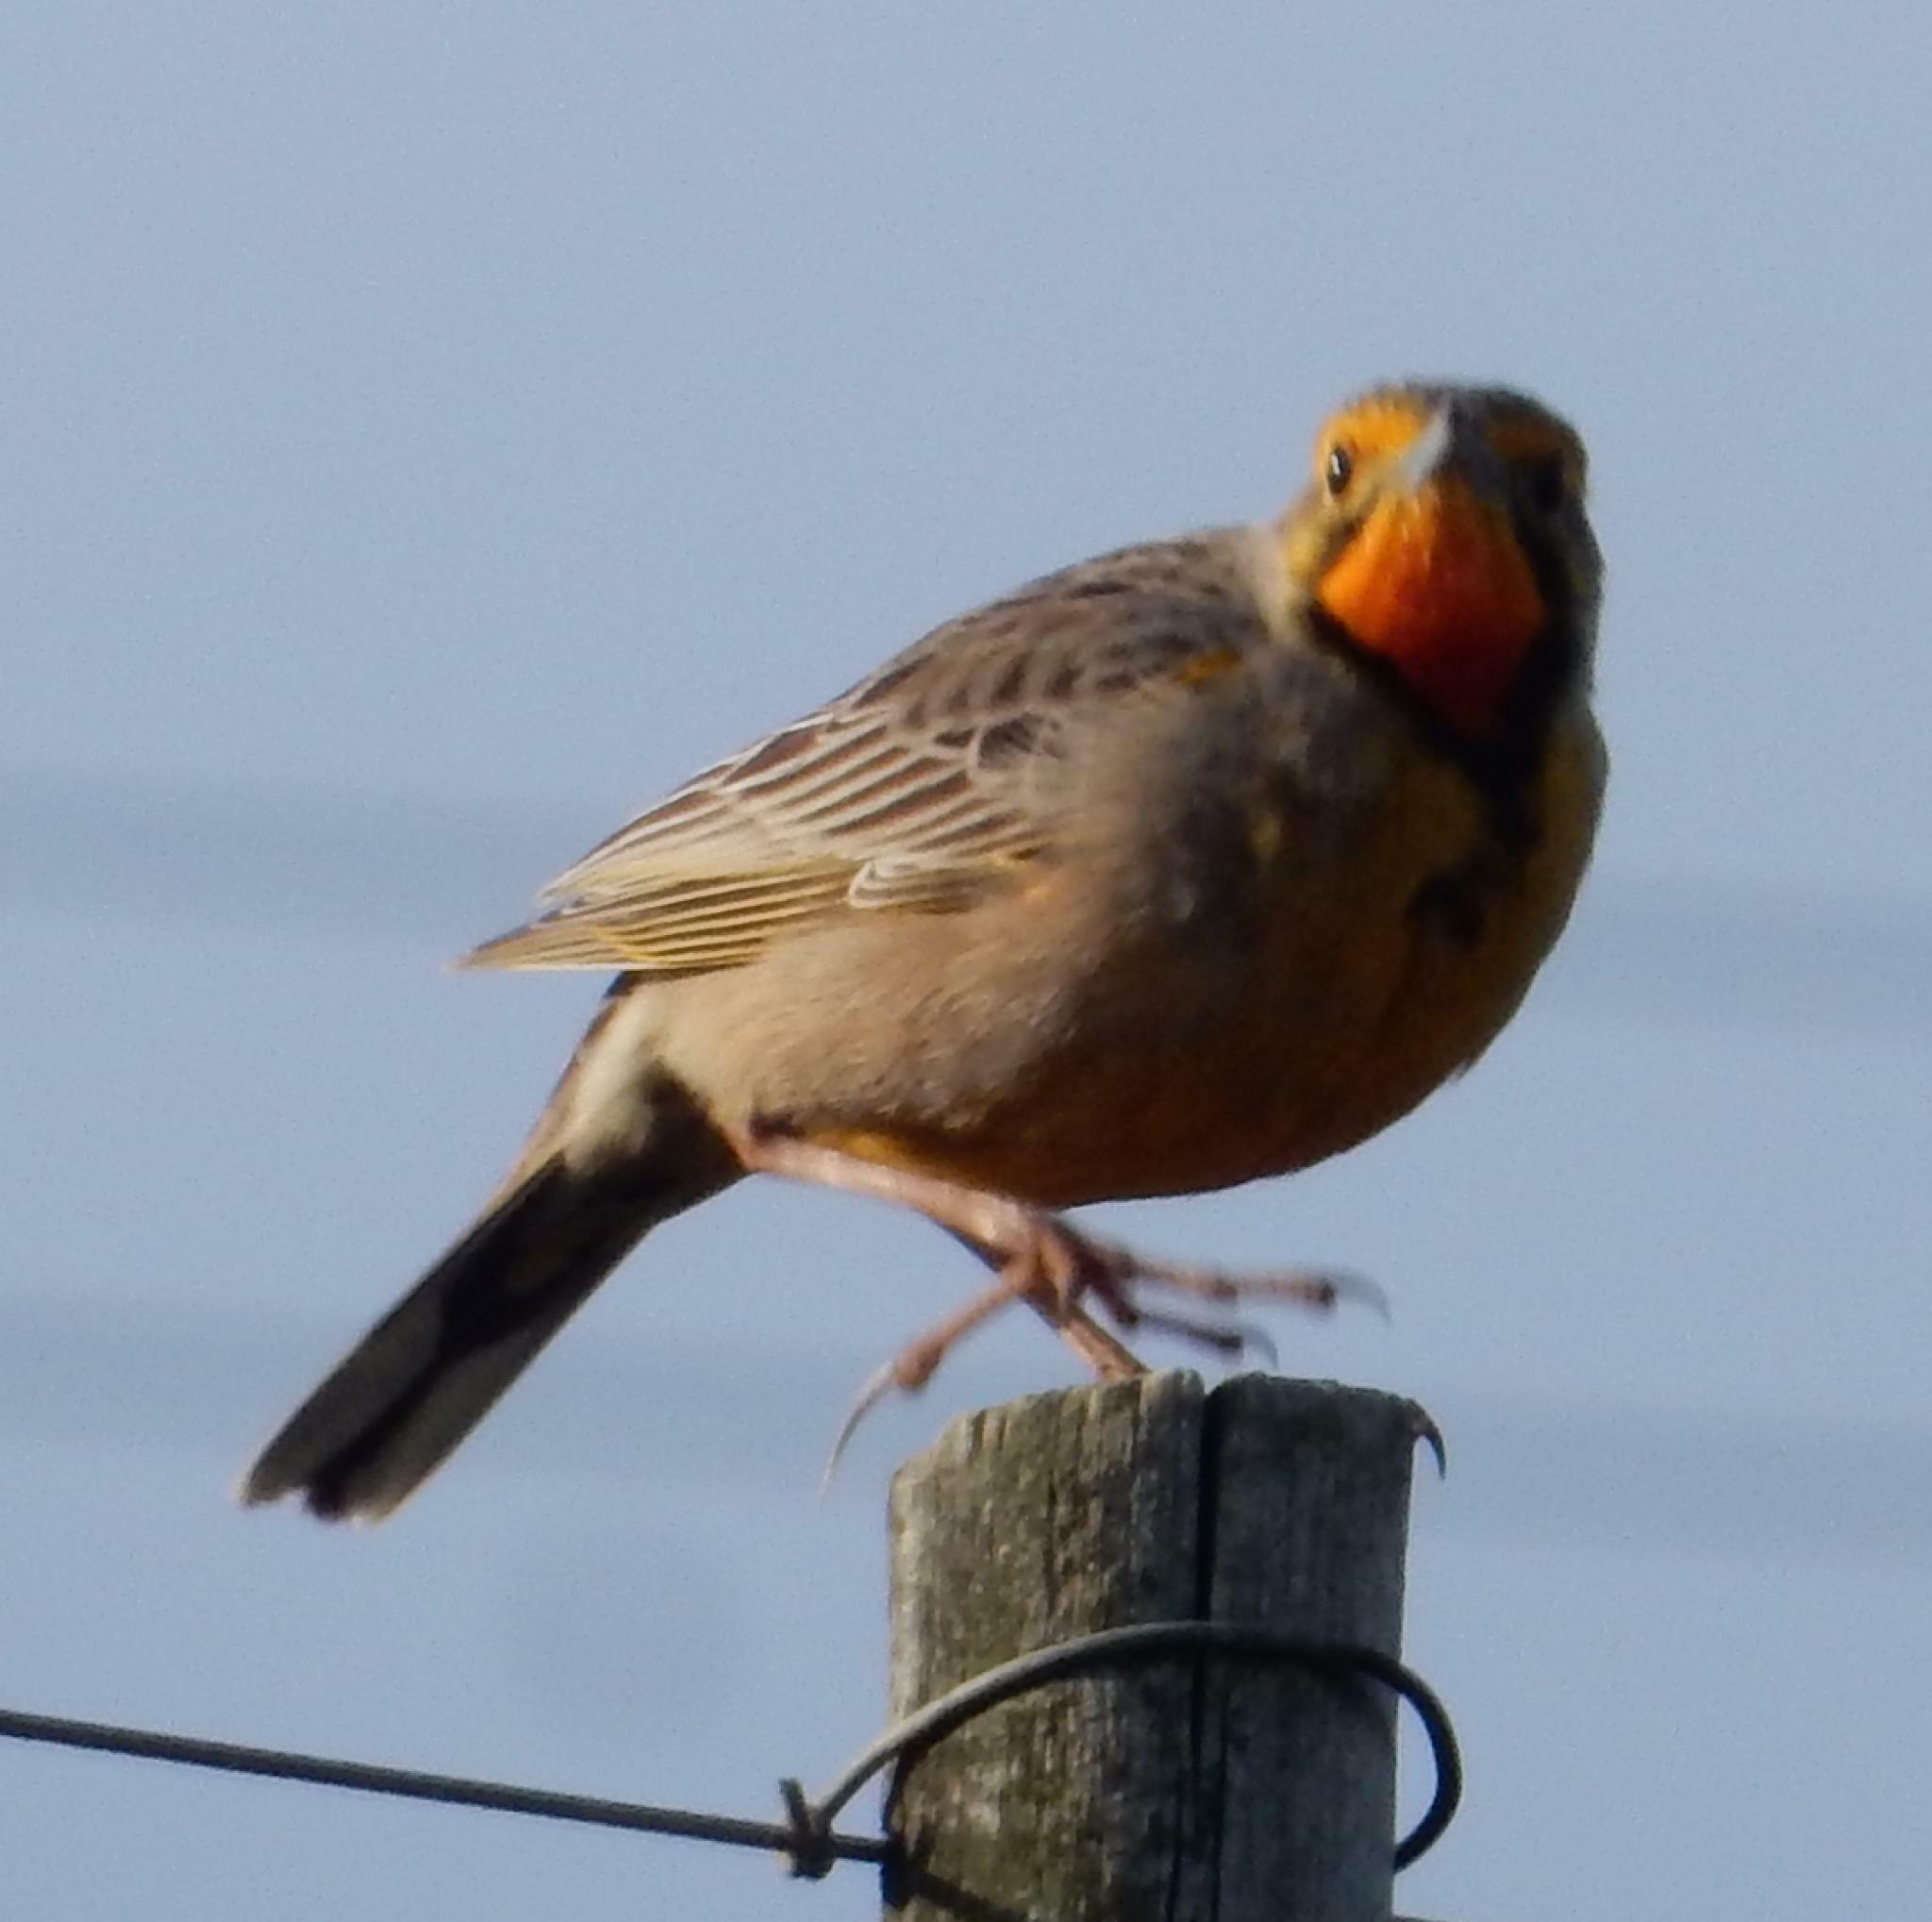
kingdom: Animalia
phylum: Chordata
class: Aves
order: Passeriformes
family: Motacillidae
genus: Macronyx
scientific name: Macronyx capensis
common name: Cape longclaw
